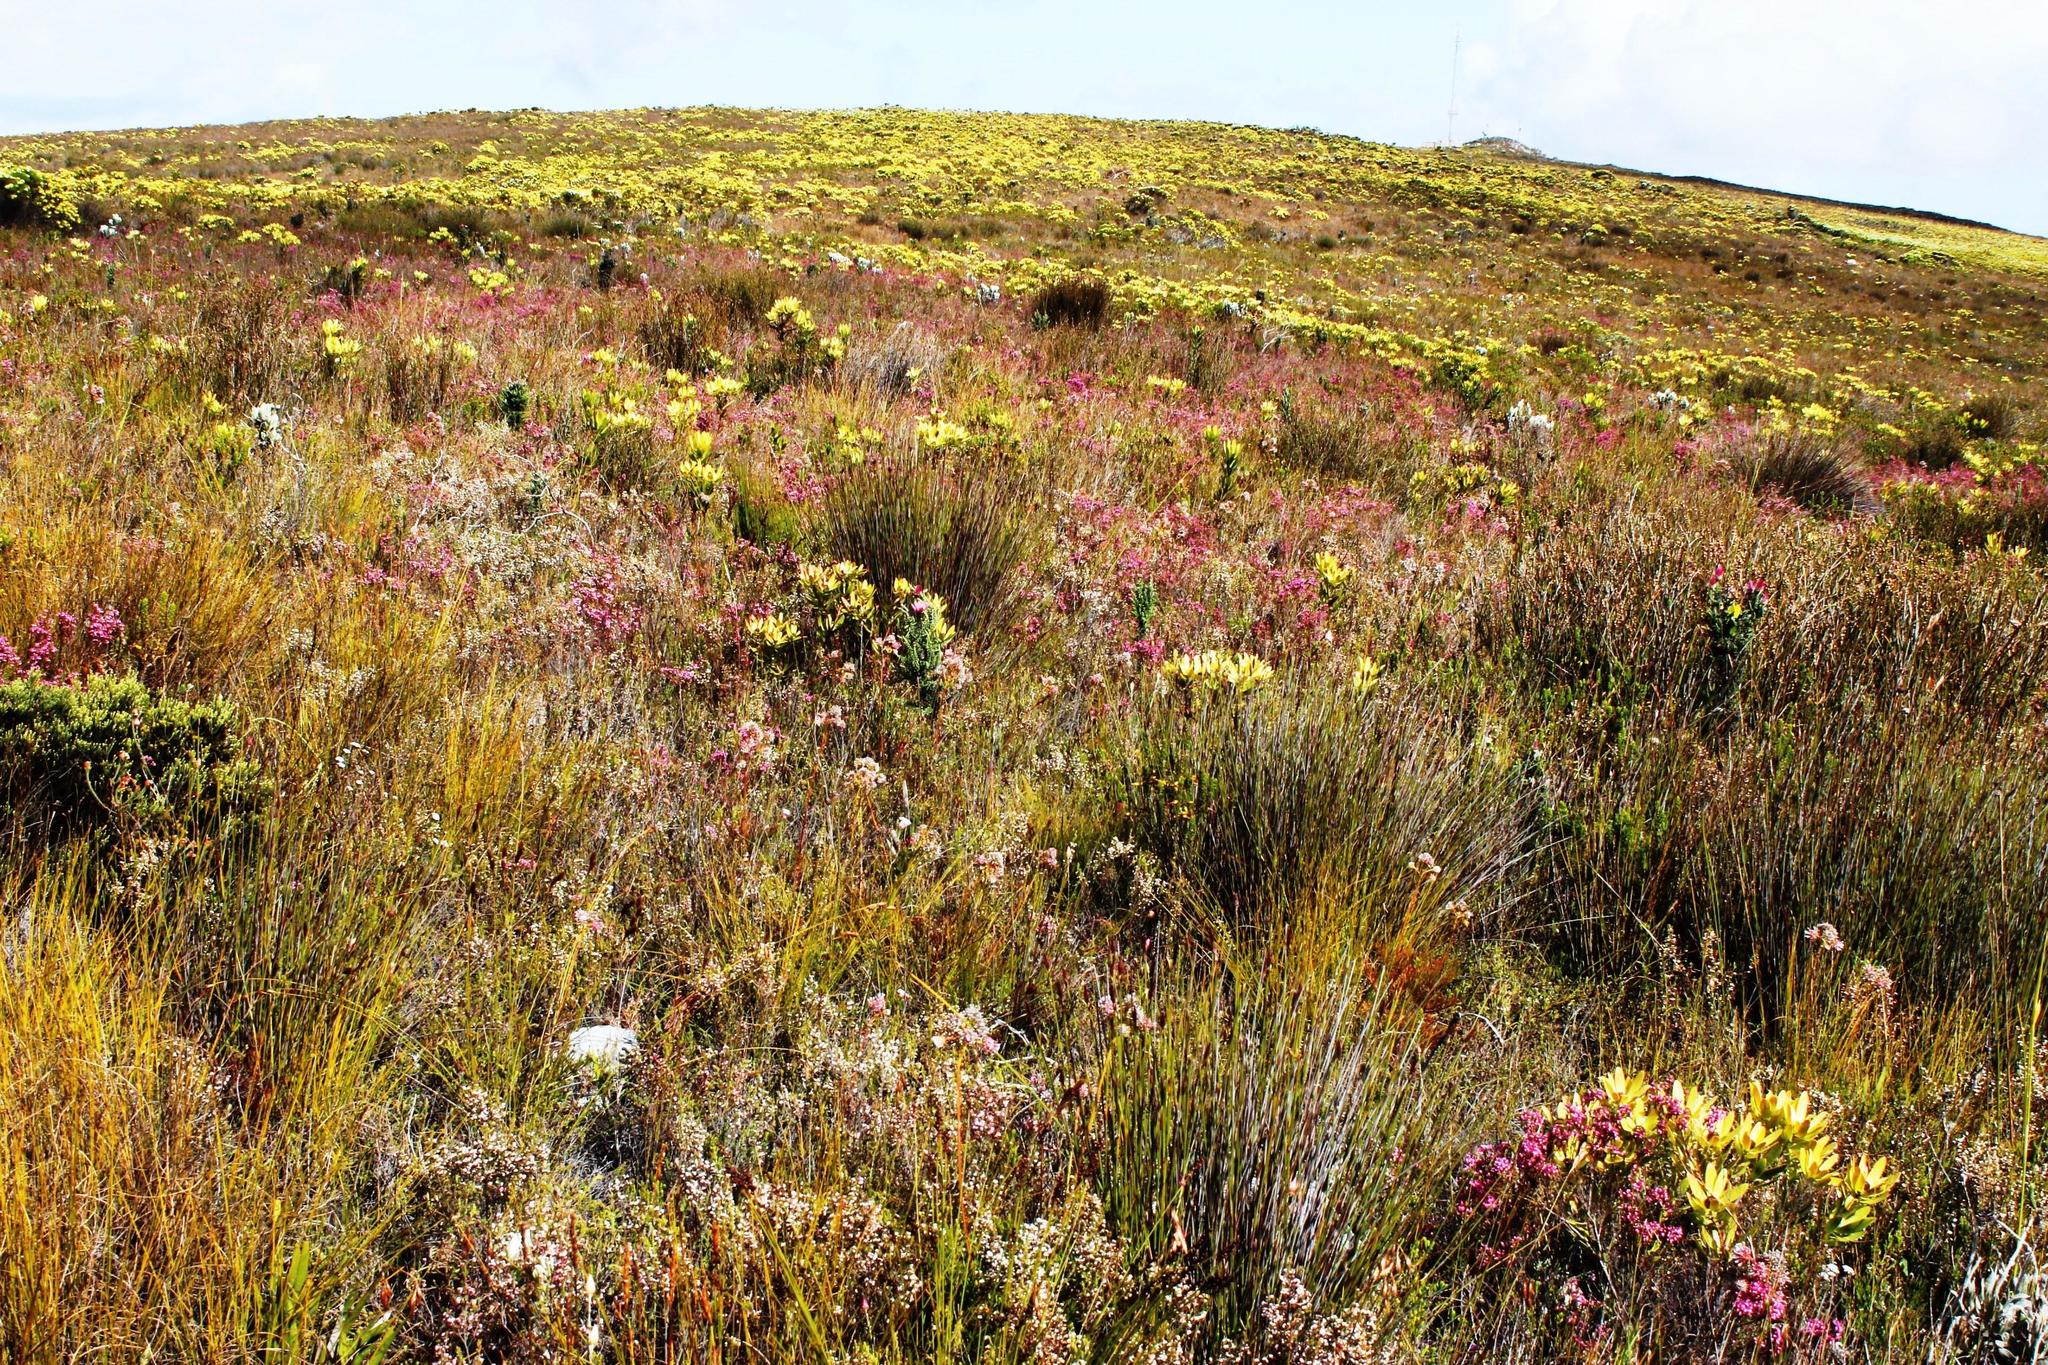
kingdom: Plantae
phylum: Tracheophyta
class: Magnoliopsida
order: Ericales
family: Ericaceae
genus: Erica
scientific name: Erica imbricata
